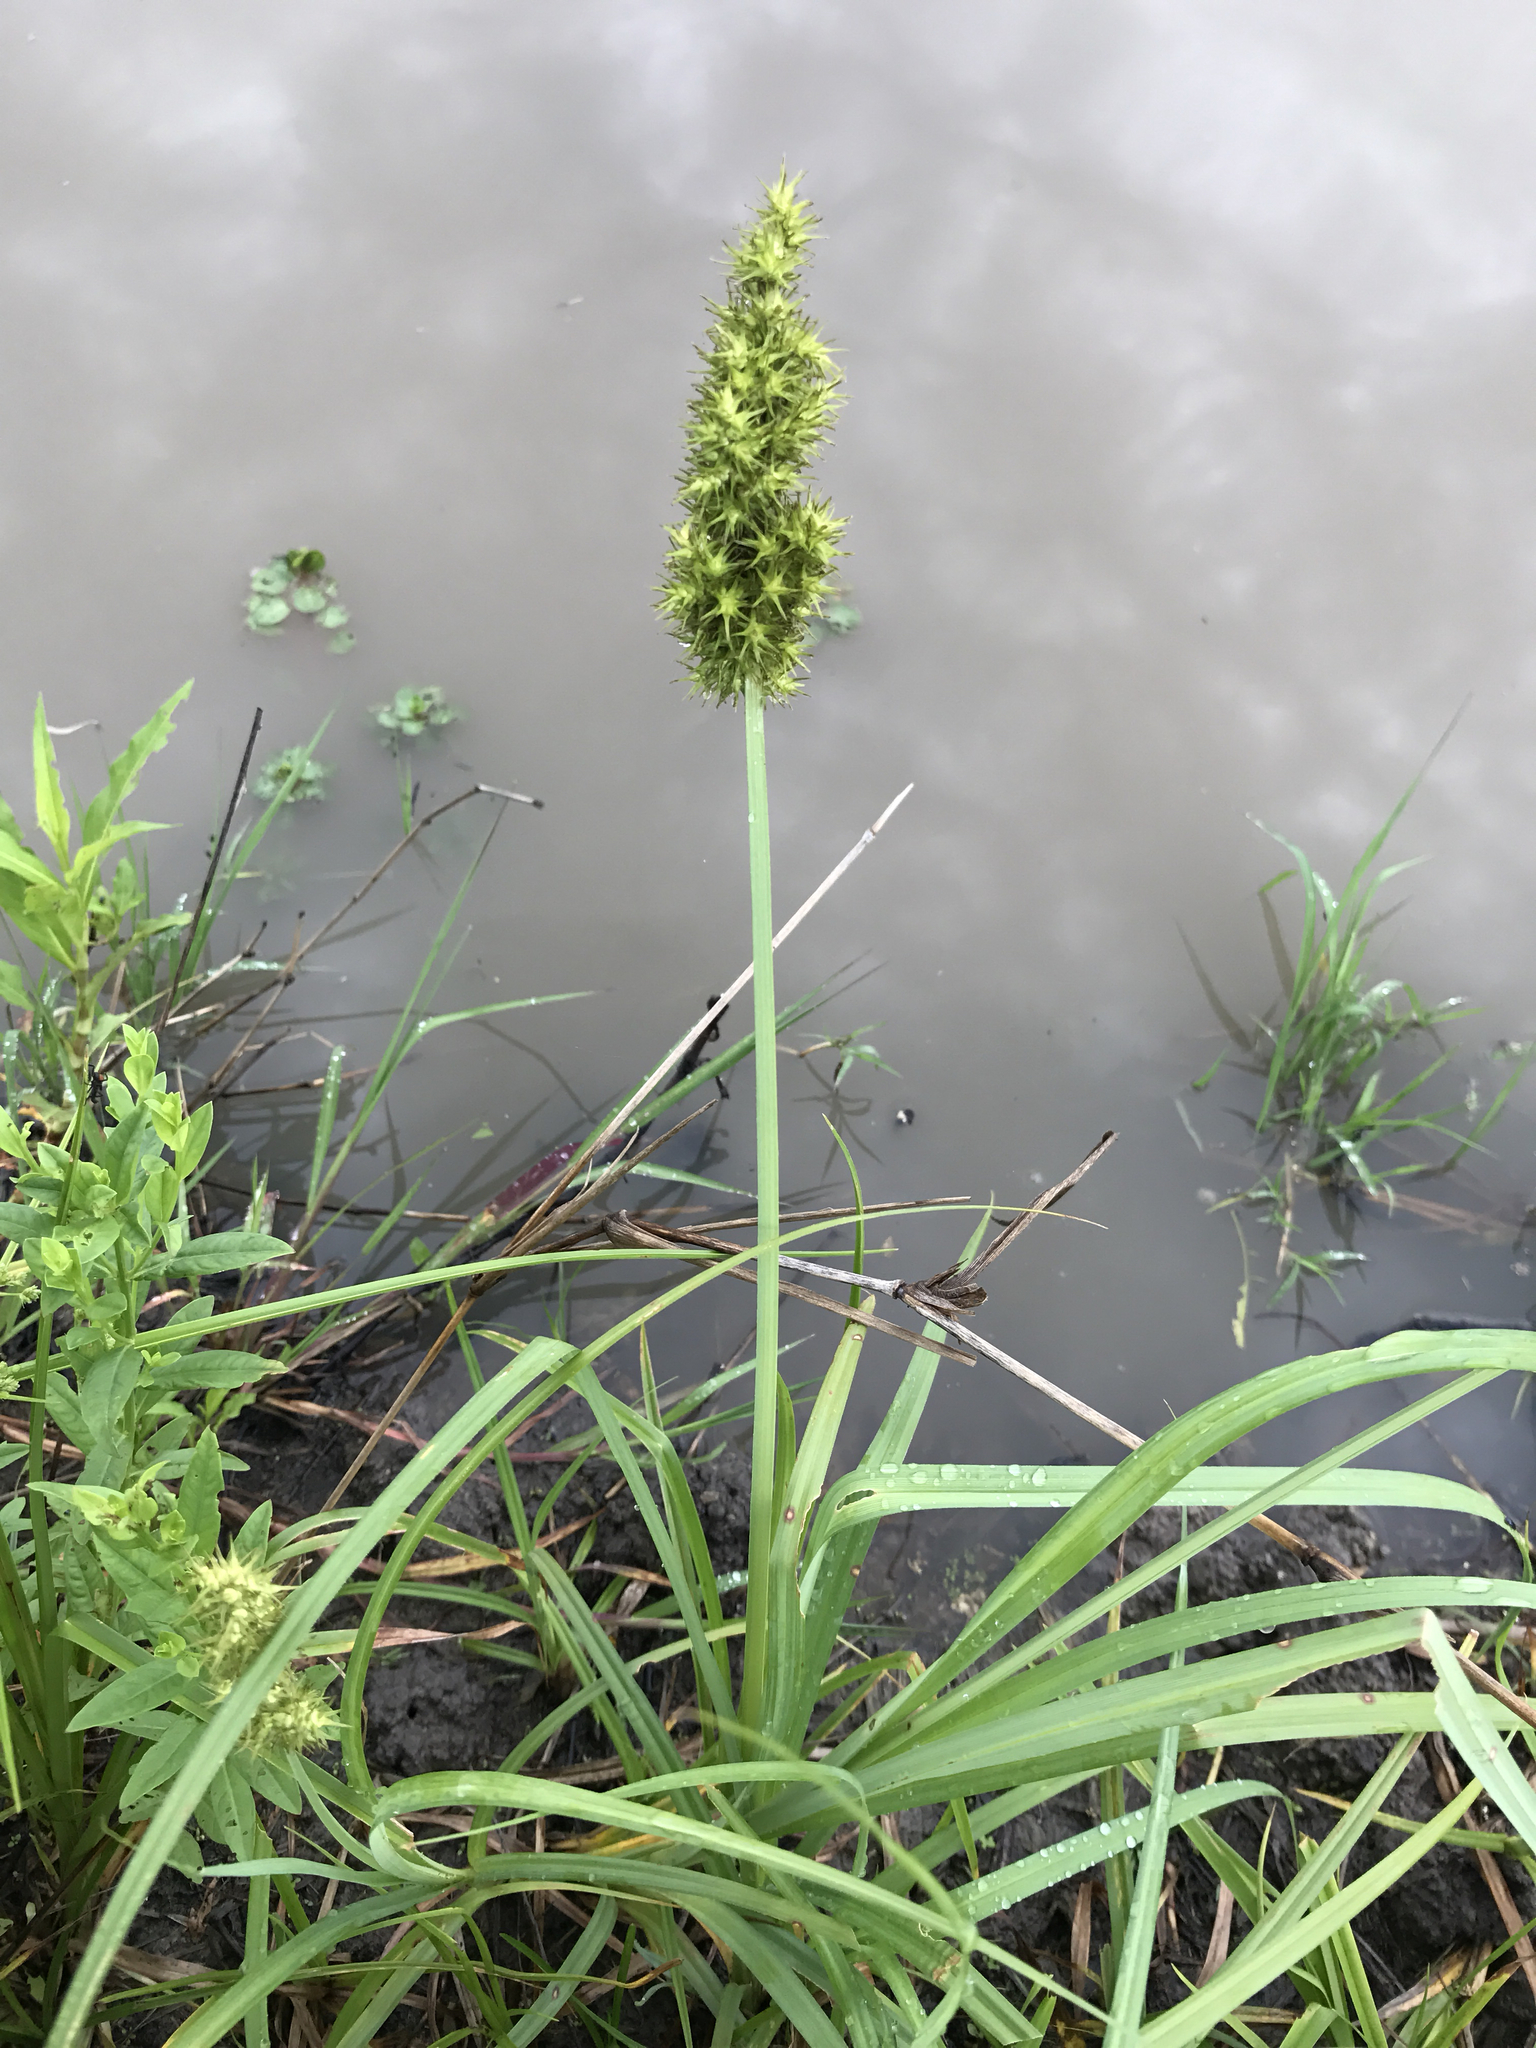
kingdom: Plantae
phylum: Tracheophyta
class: Liliopsida
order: Poales
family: Cyperaceae
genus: Carex
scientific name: Carex crus-corvi
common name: Crow-spur sedge
